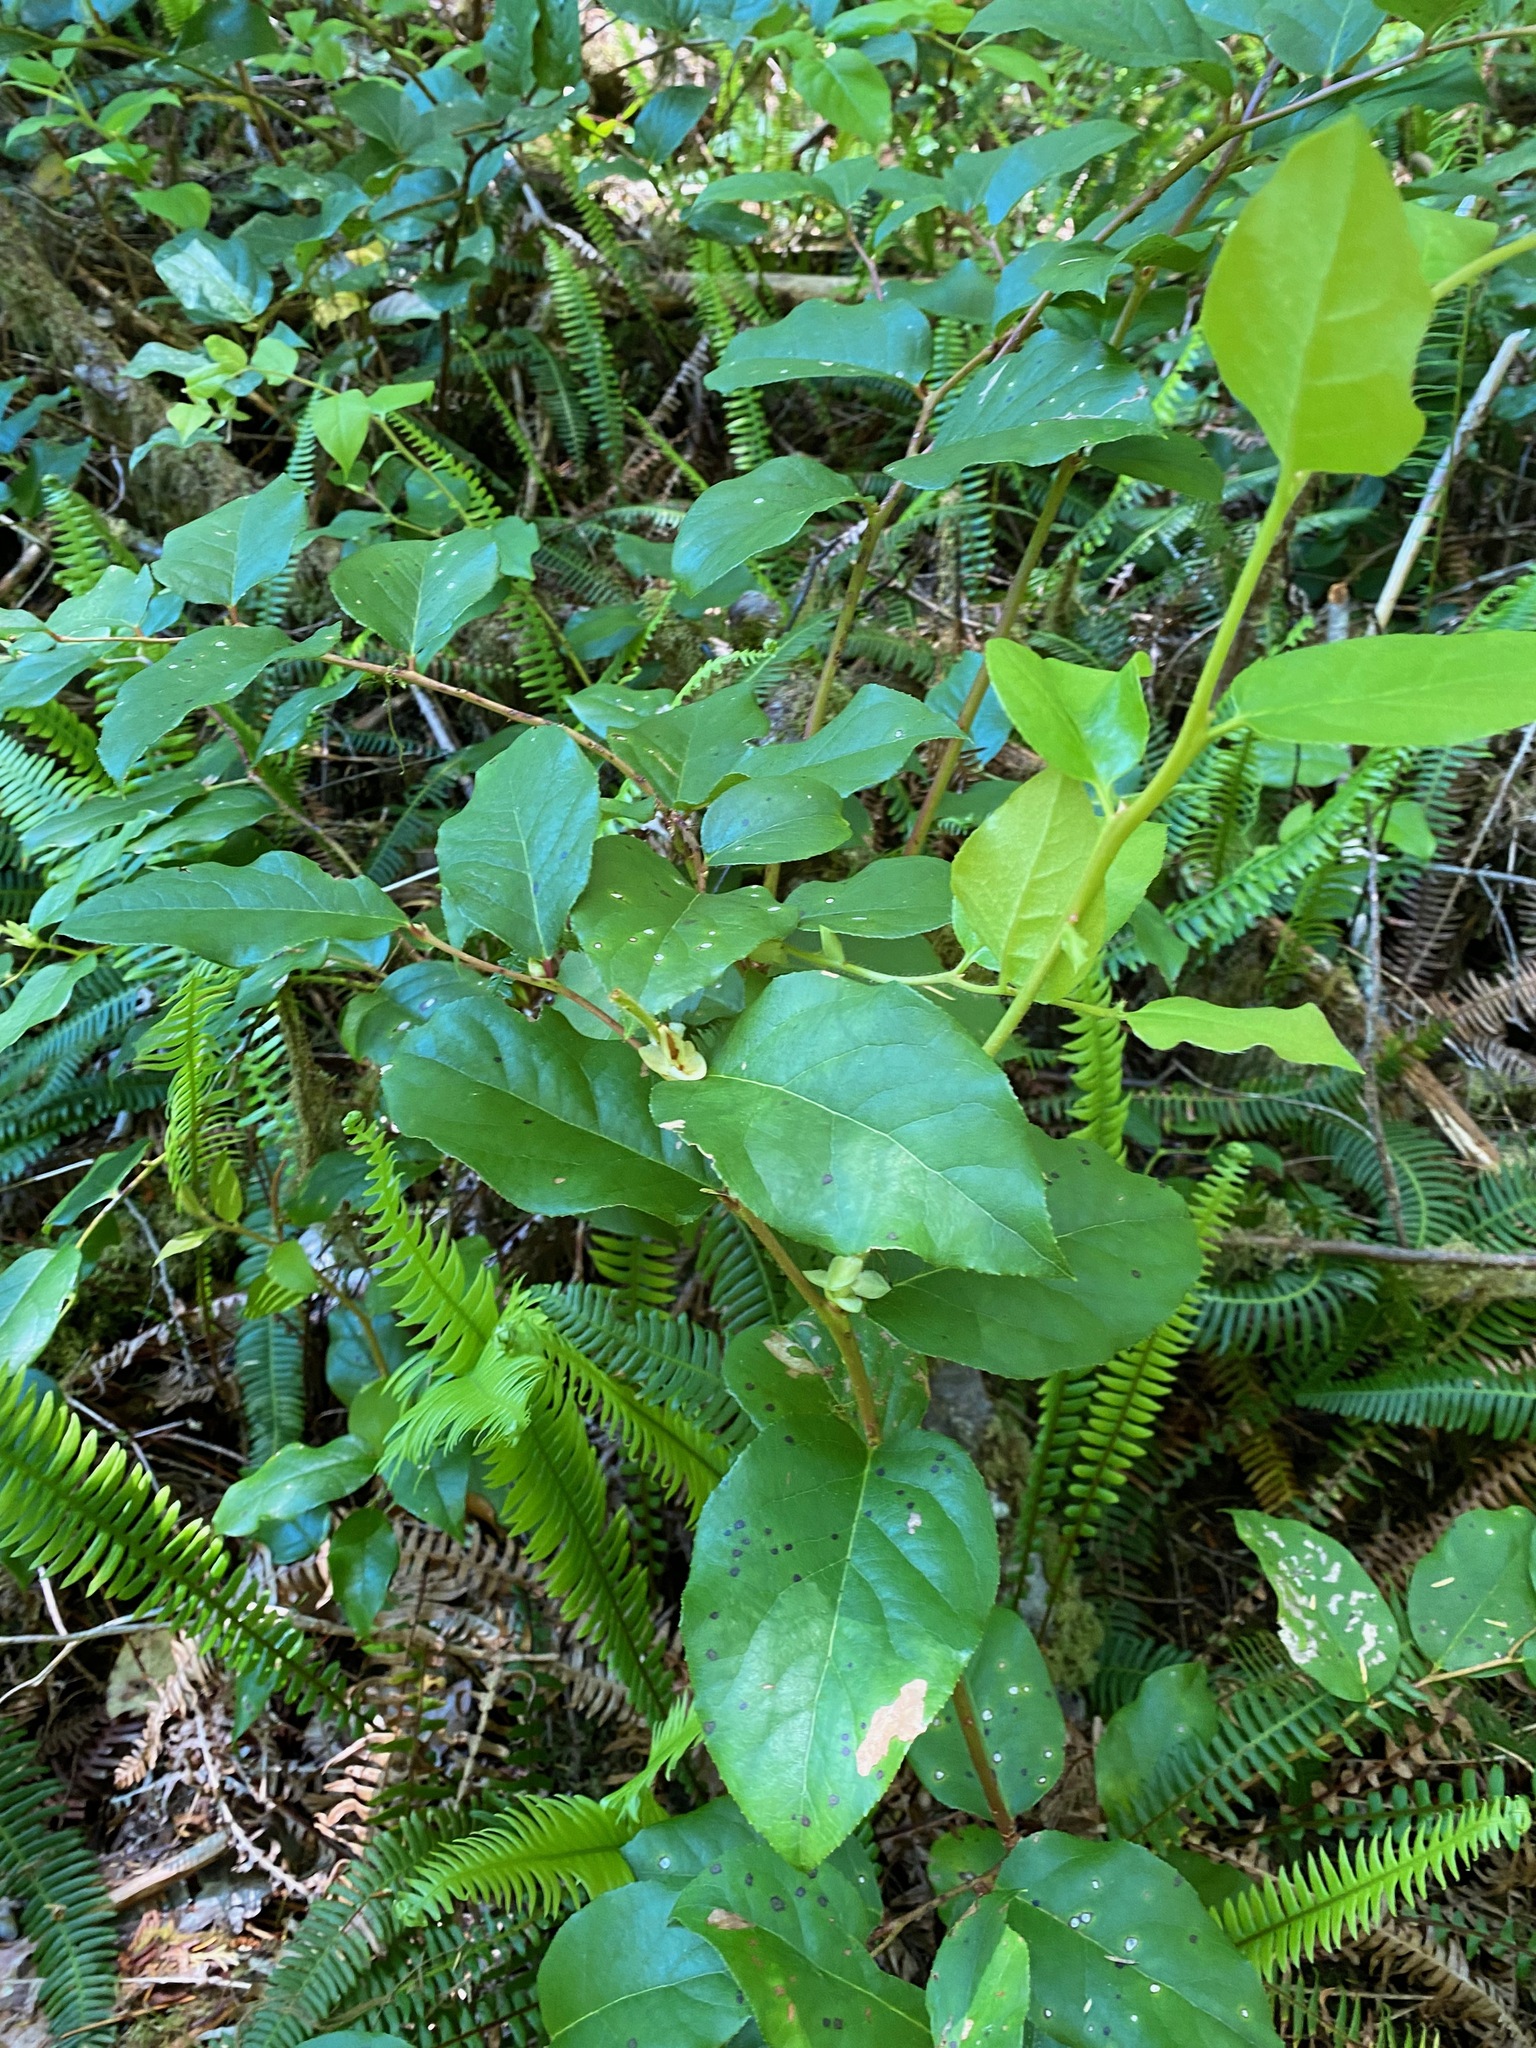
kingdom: Plantae
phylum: Tracheophyta
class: Magnoliopsida
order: Ericales
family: Ericaceae
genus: Gaultheria
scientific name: Gaultheria shallon
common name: Shallon
